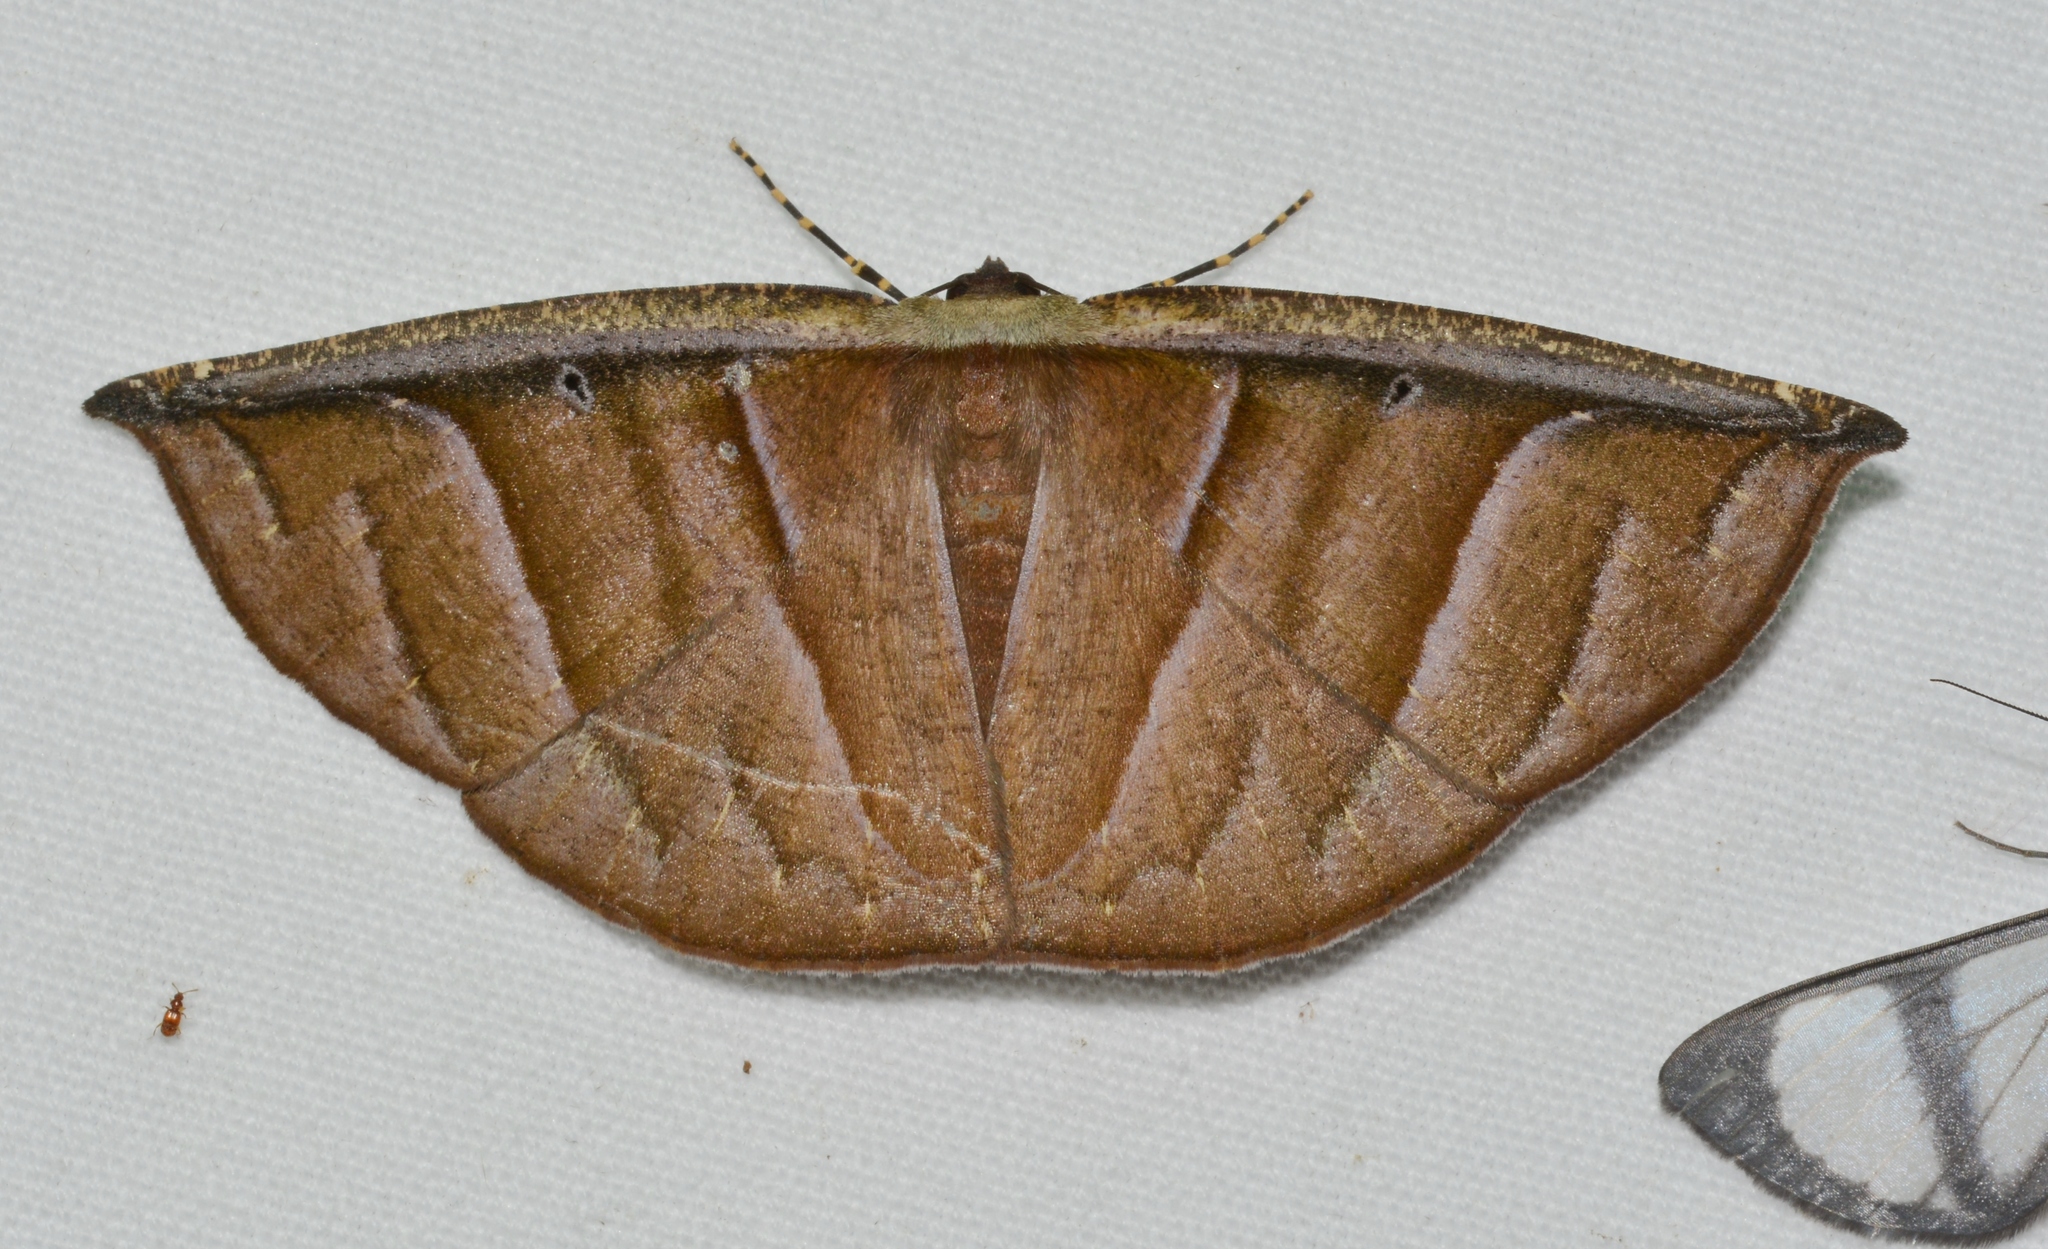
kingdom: Animalia
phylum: Arthropoda
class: Insecta
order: Lepidoptera
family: Geometridae
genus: Cimicodes
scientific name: Cimicodes purpurea
